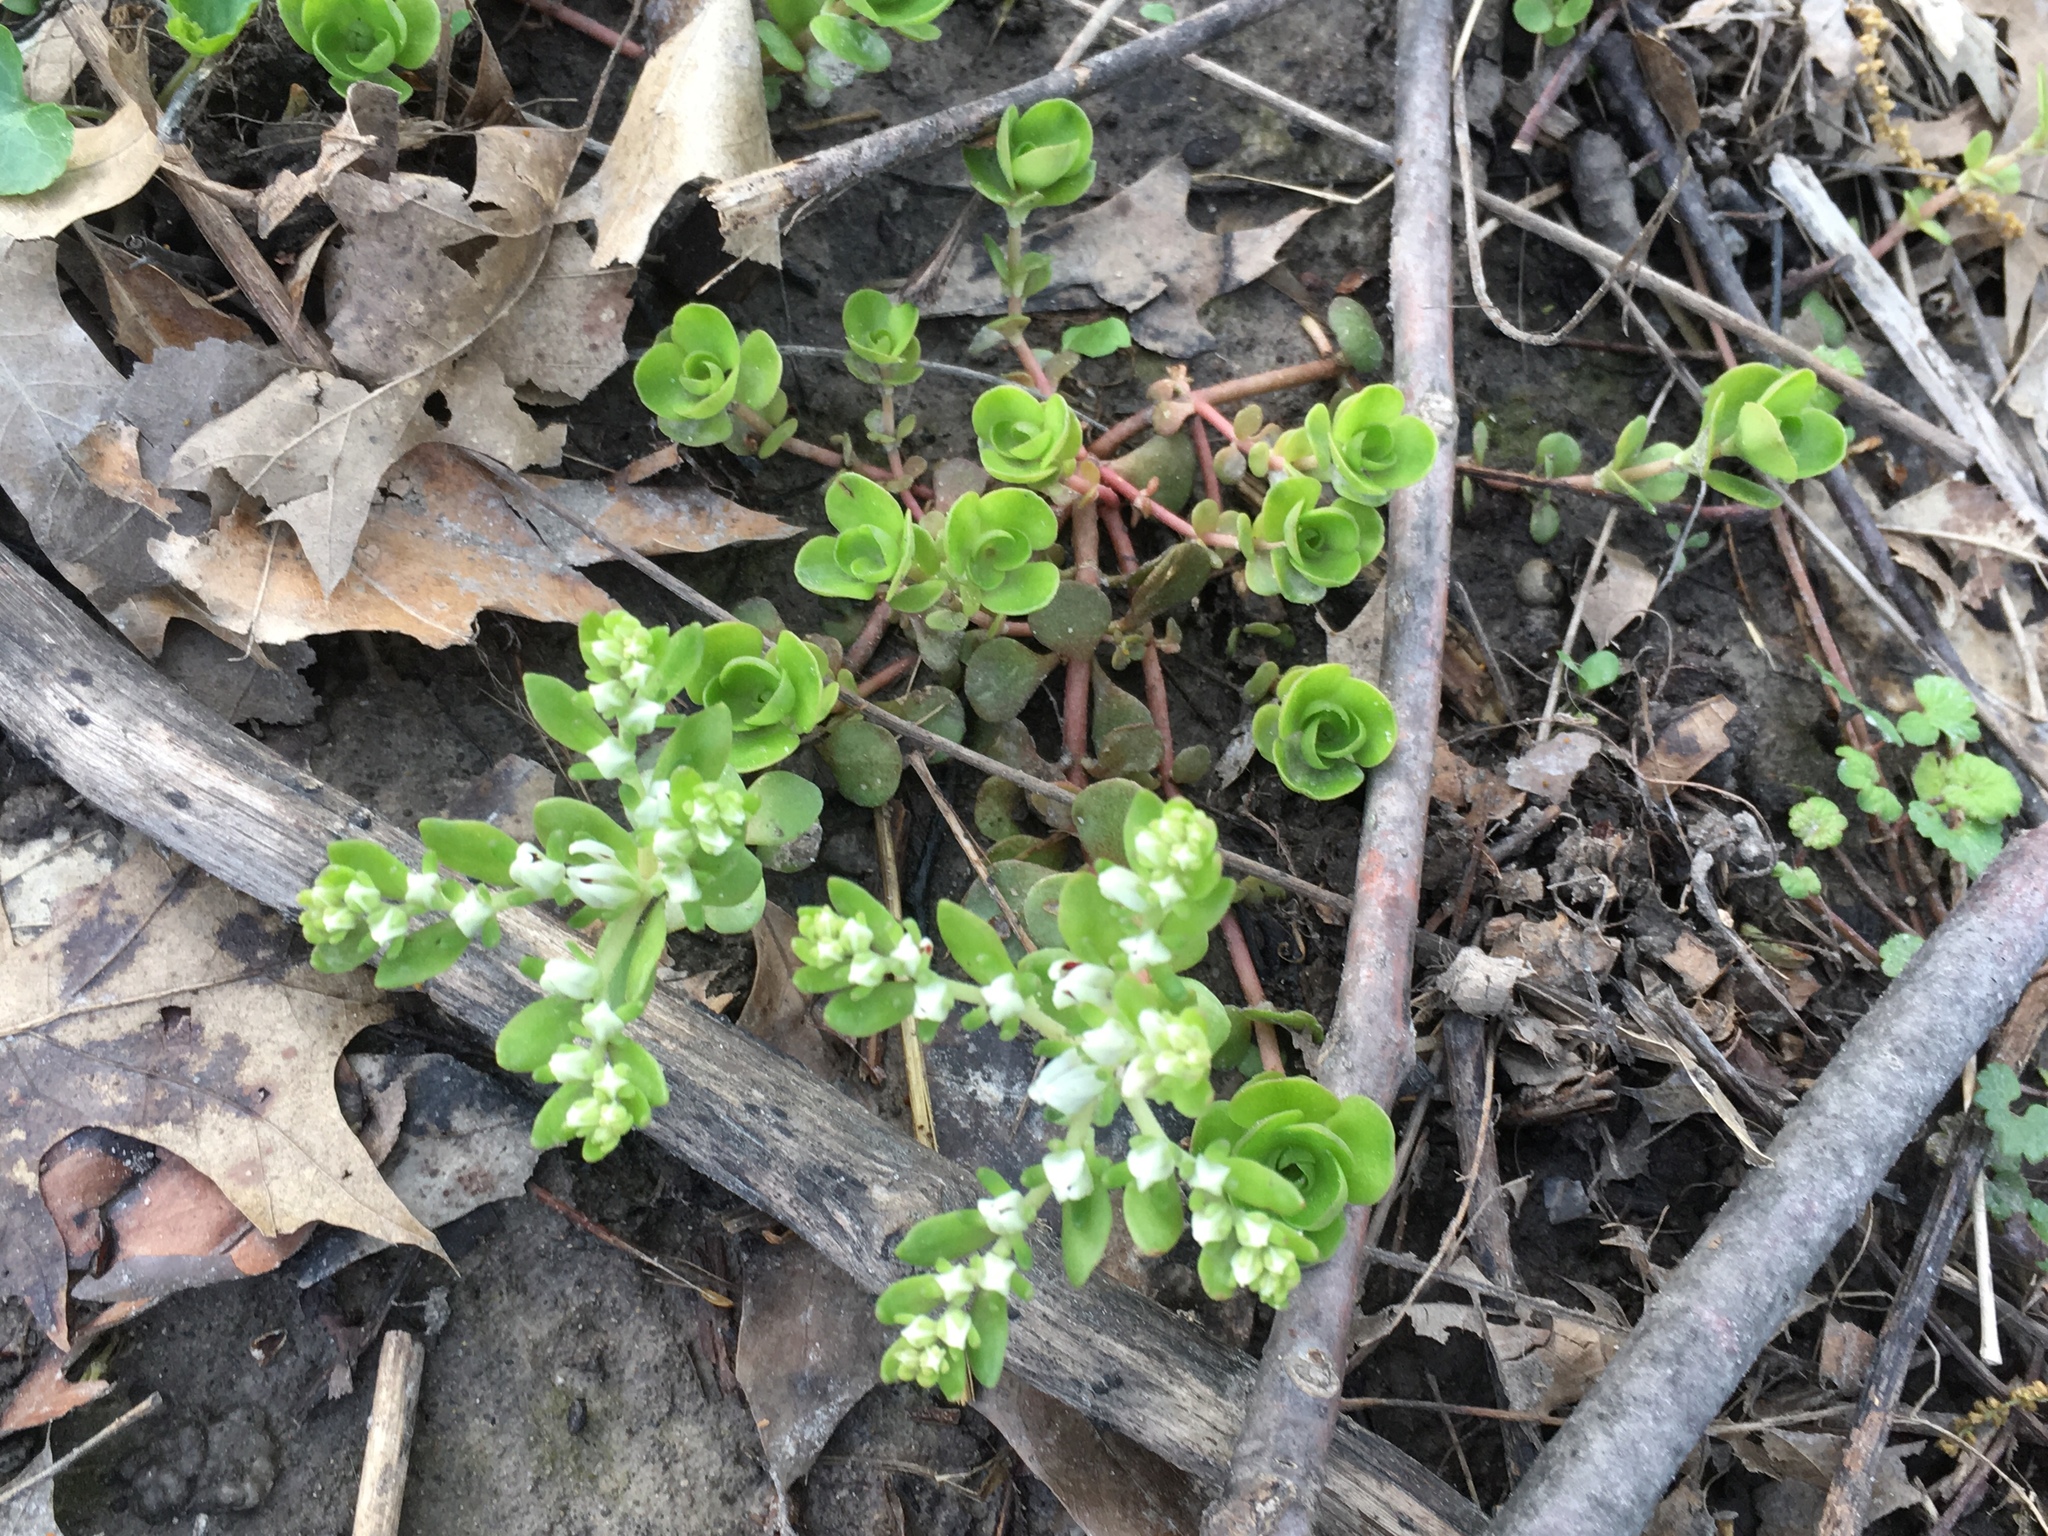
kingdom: Plantae
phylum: Tracheophyta
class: Magnoliopsida
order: Saxifragales
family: Crassulaceae
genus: Sedum
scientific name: Sedum ternatum
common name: Wild stonecrop
